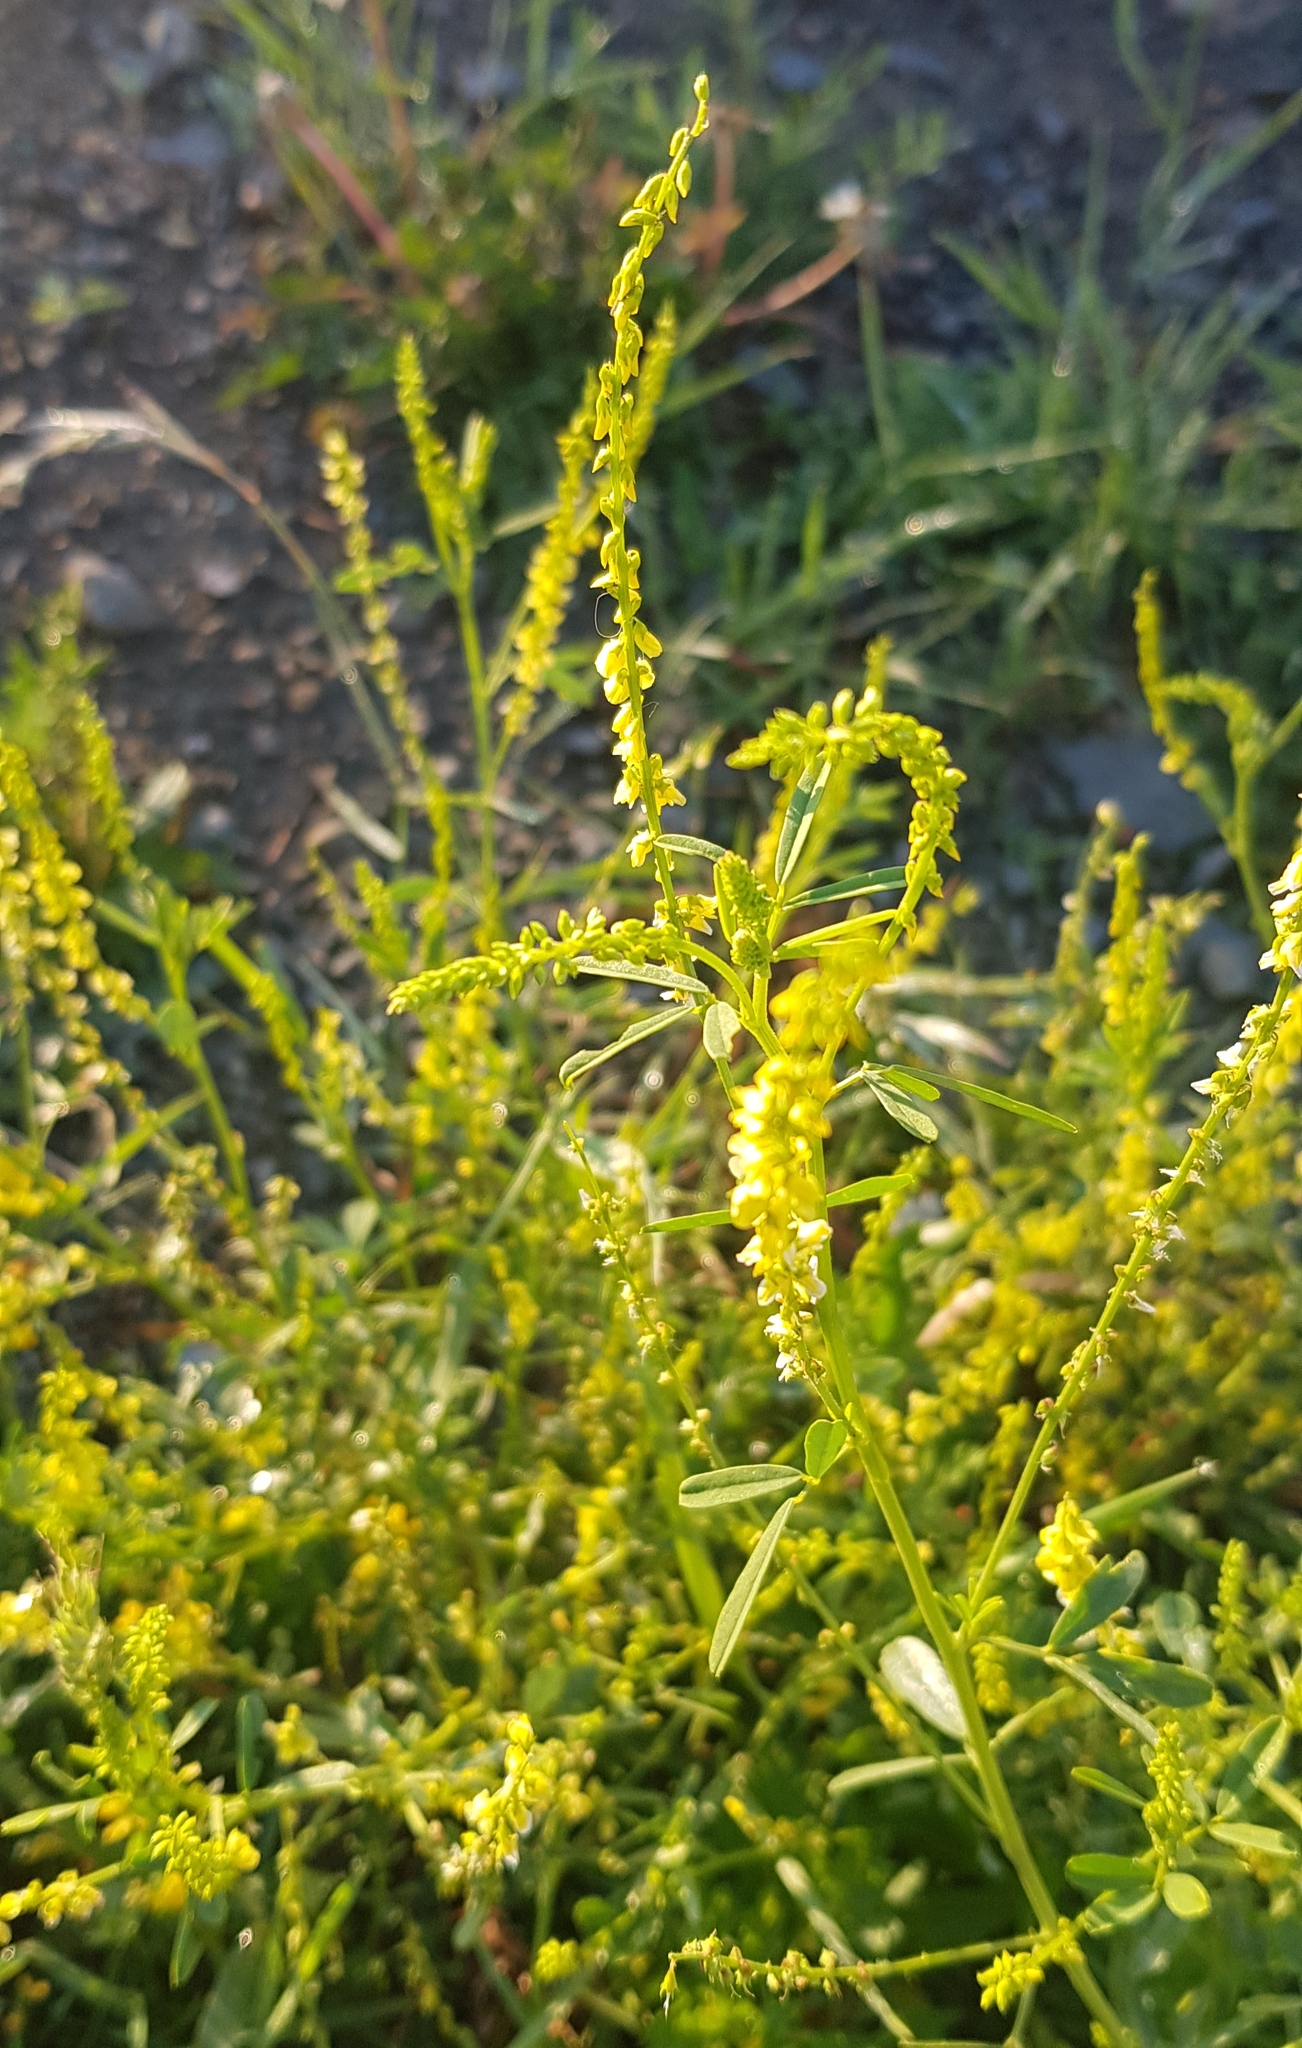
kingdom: Plantae
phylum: Tracheophyta
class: Magnoliopsida
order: Fabales
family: Fabaceae
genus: Melilotus
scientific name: Melilotus officinalis
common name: Sweetclover
